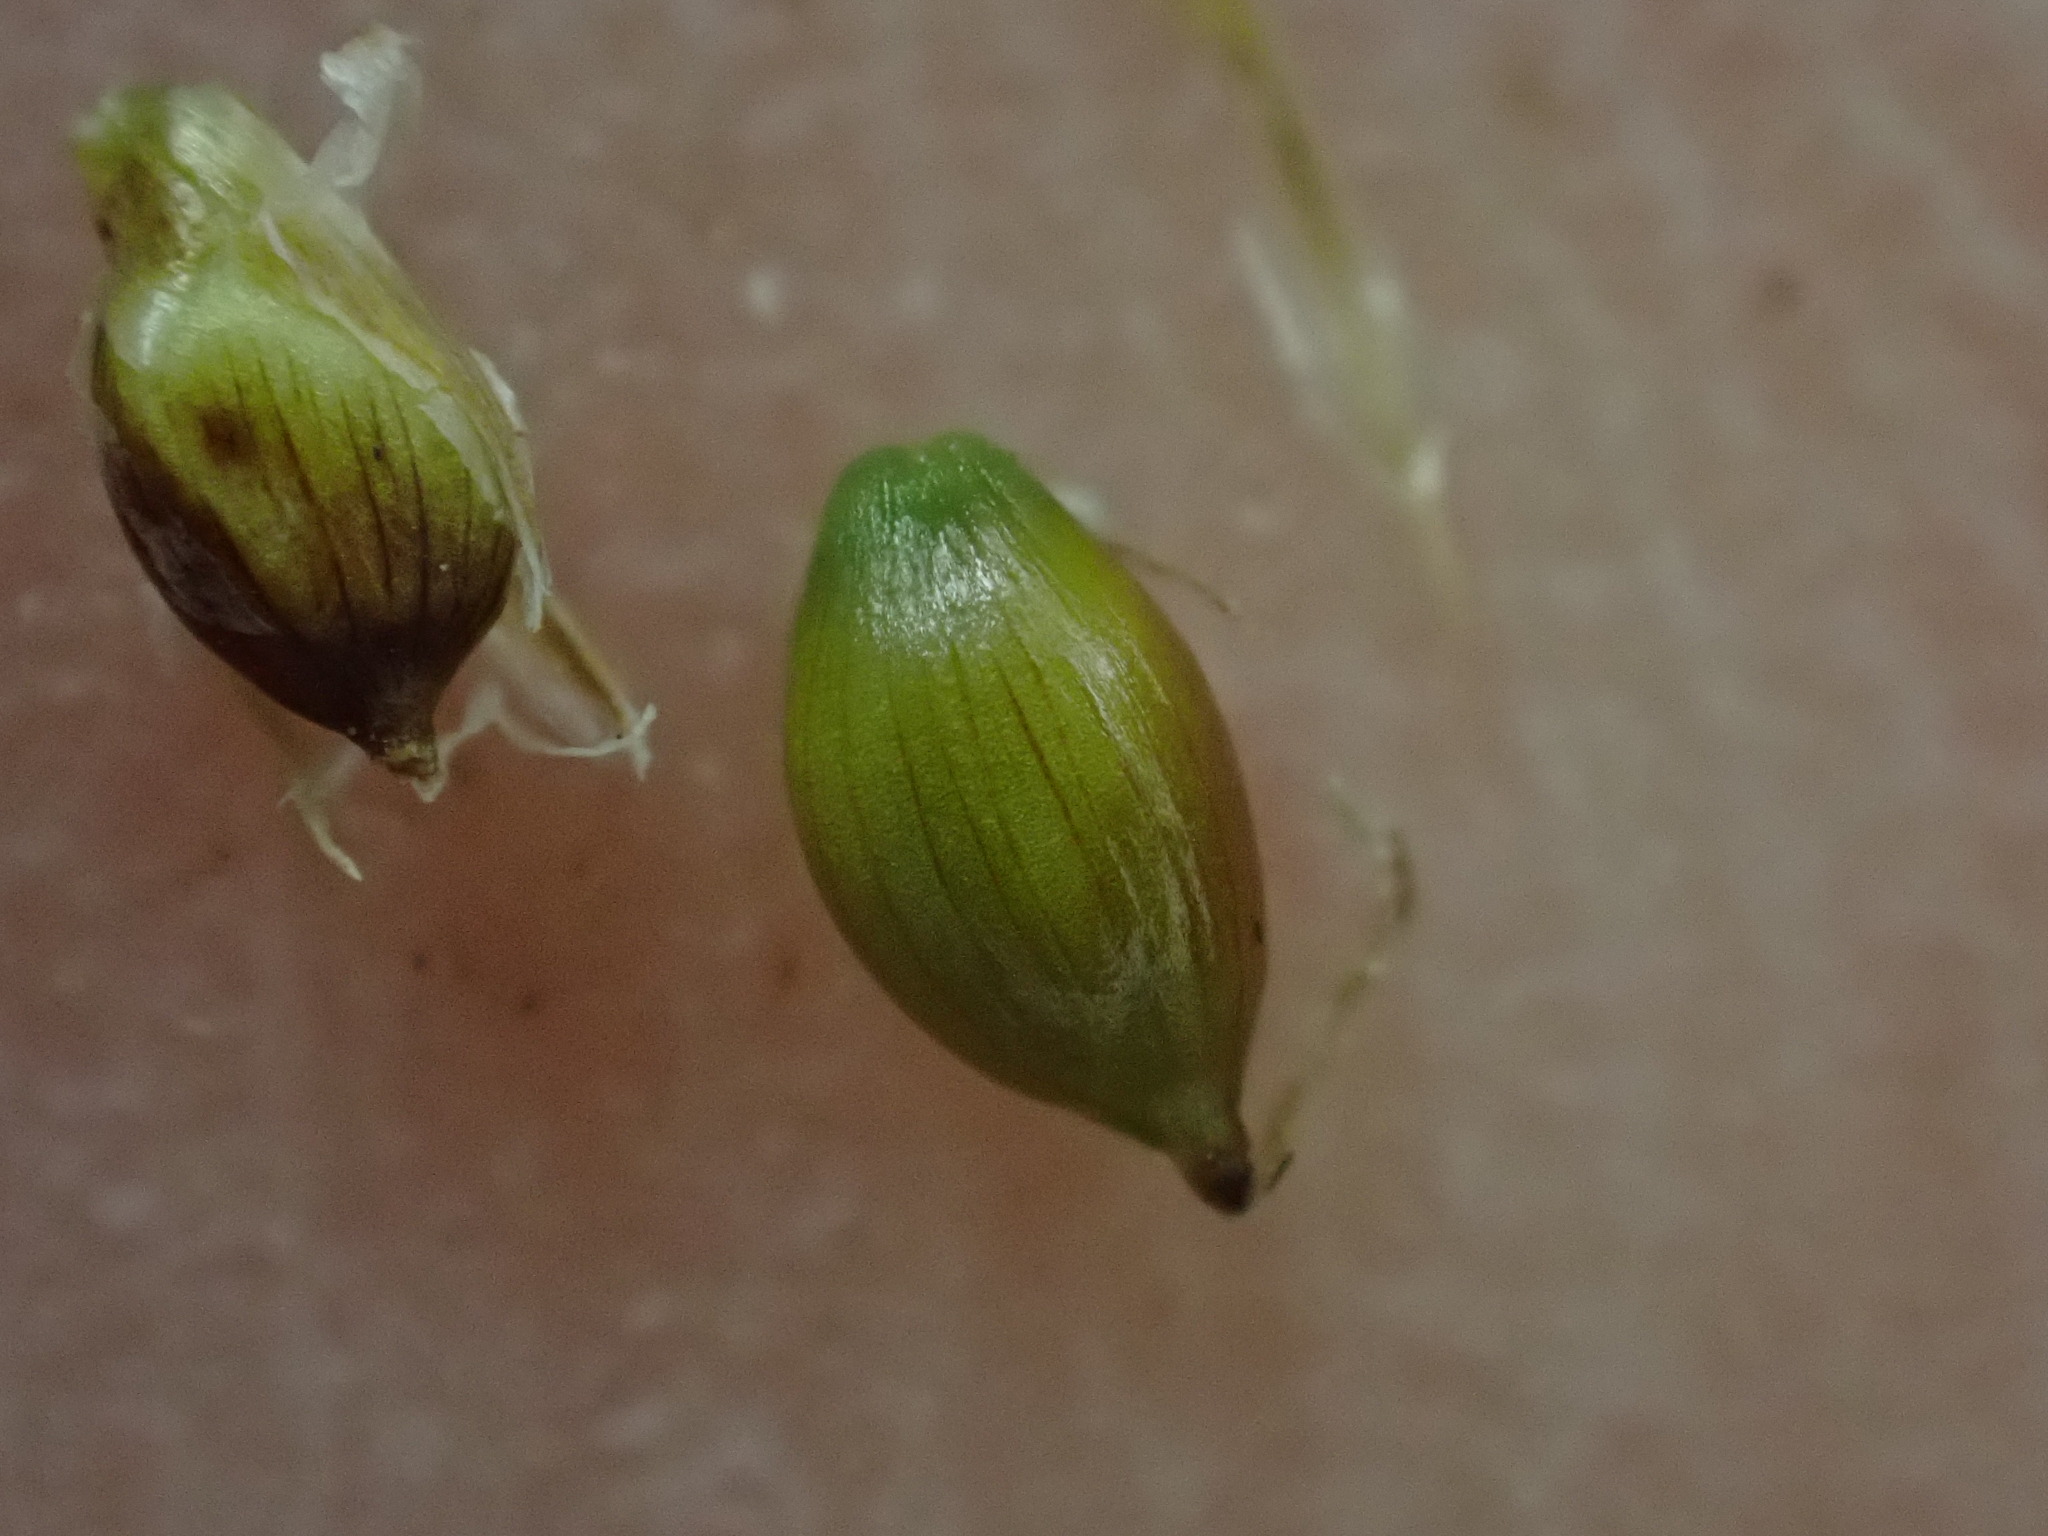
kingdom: Plantae
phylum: Tracheophyta
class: Liliopsida
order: Poales
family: Cyperaceae
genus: Carex
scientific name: Carex disperma
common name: Short-leaved sedge
